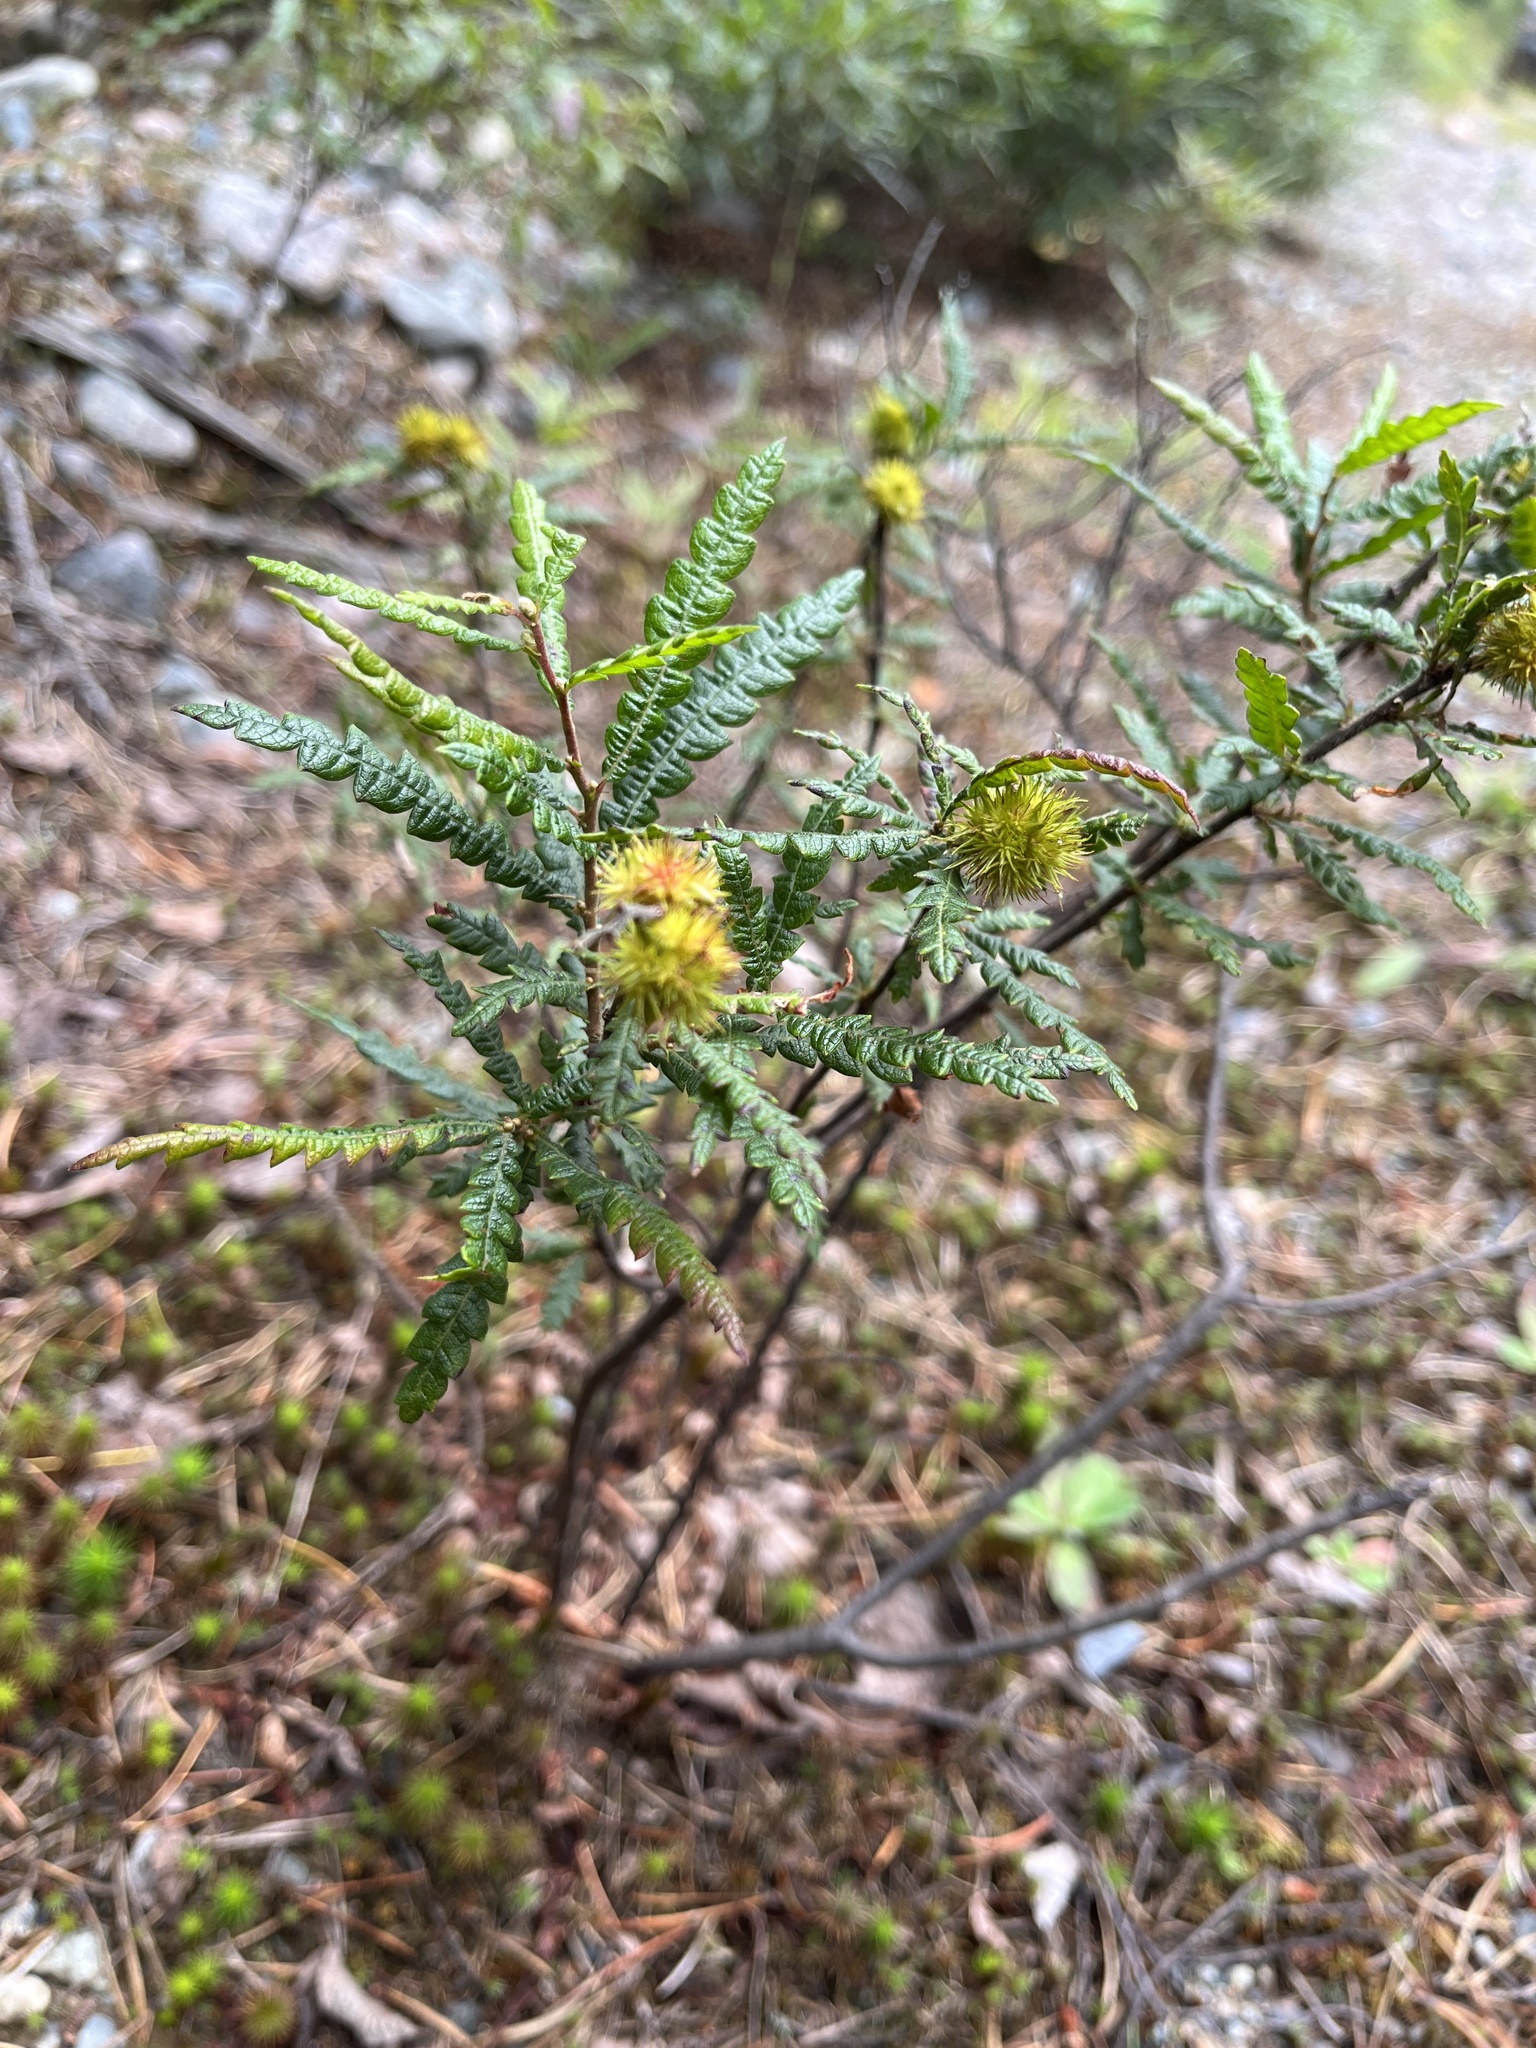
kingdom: Plantae
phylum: Tracheophyta
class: Magnoliopsida
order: Fagales
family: Myricaceae
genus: Comptonia
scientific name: Comptonia peregrina
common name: Sweet-fern
